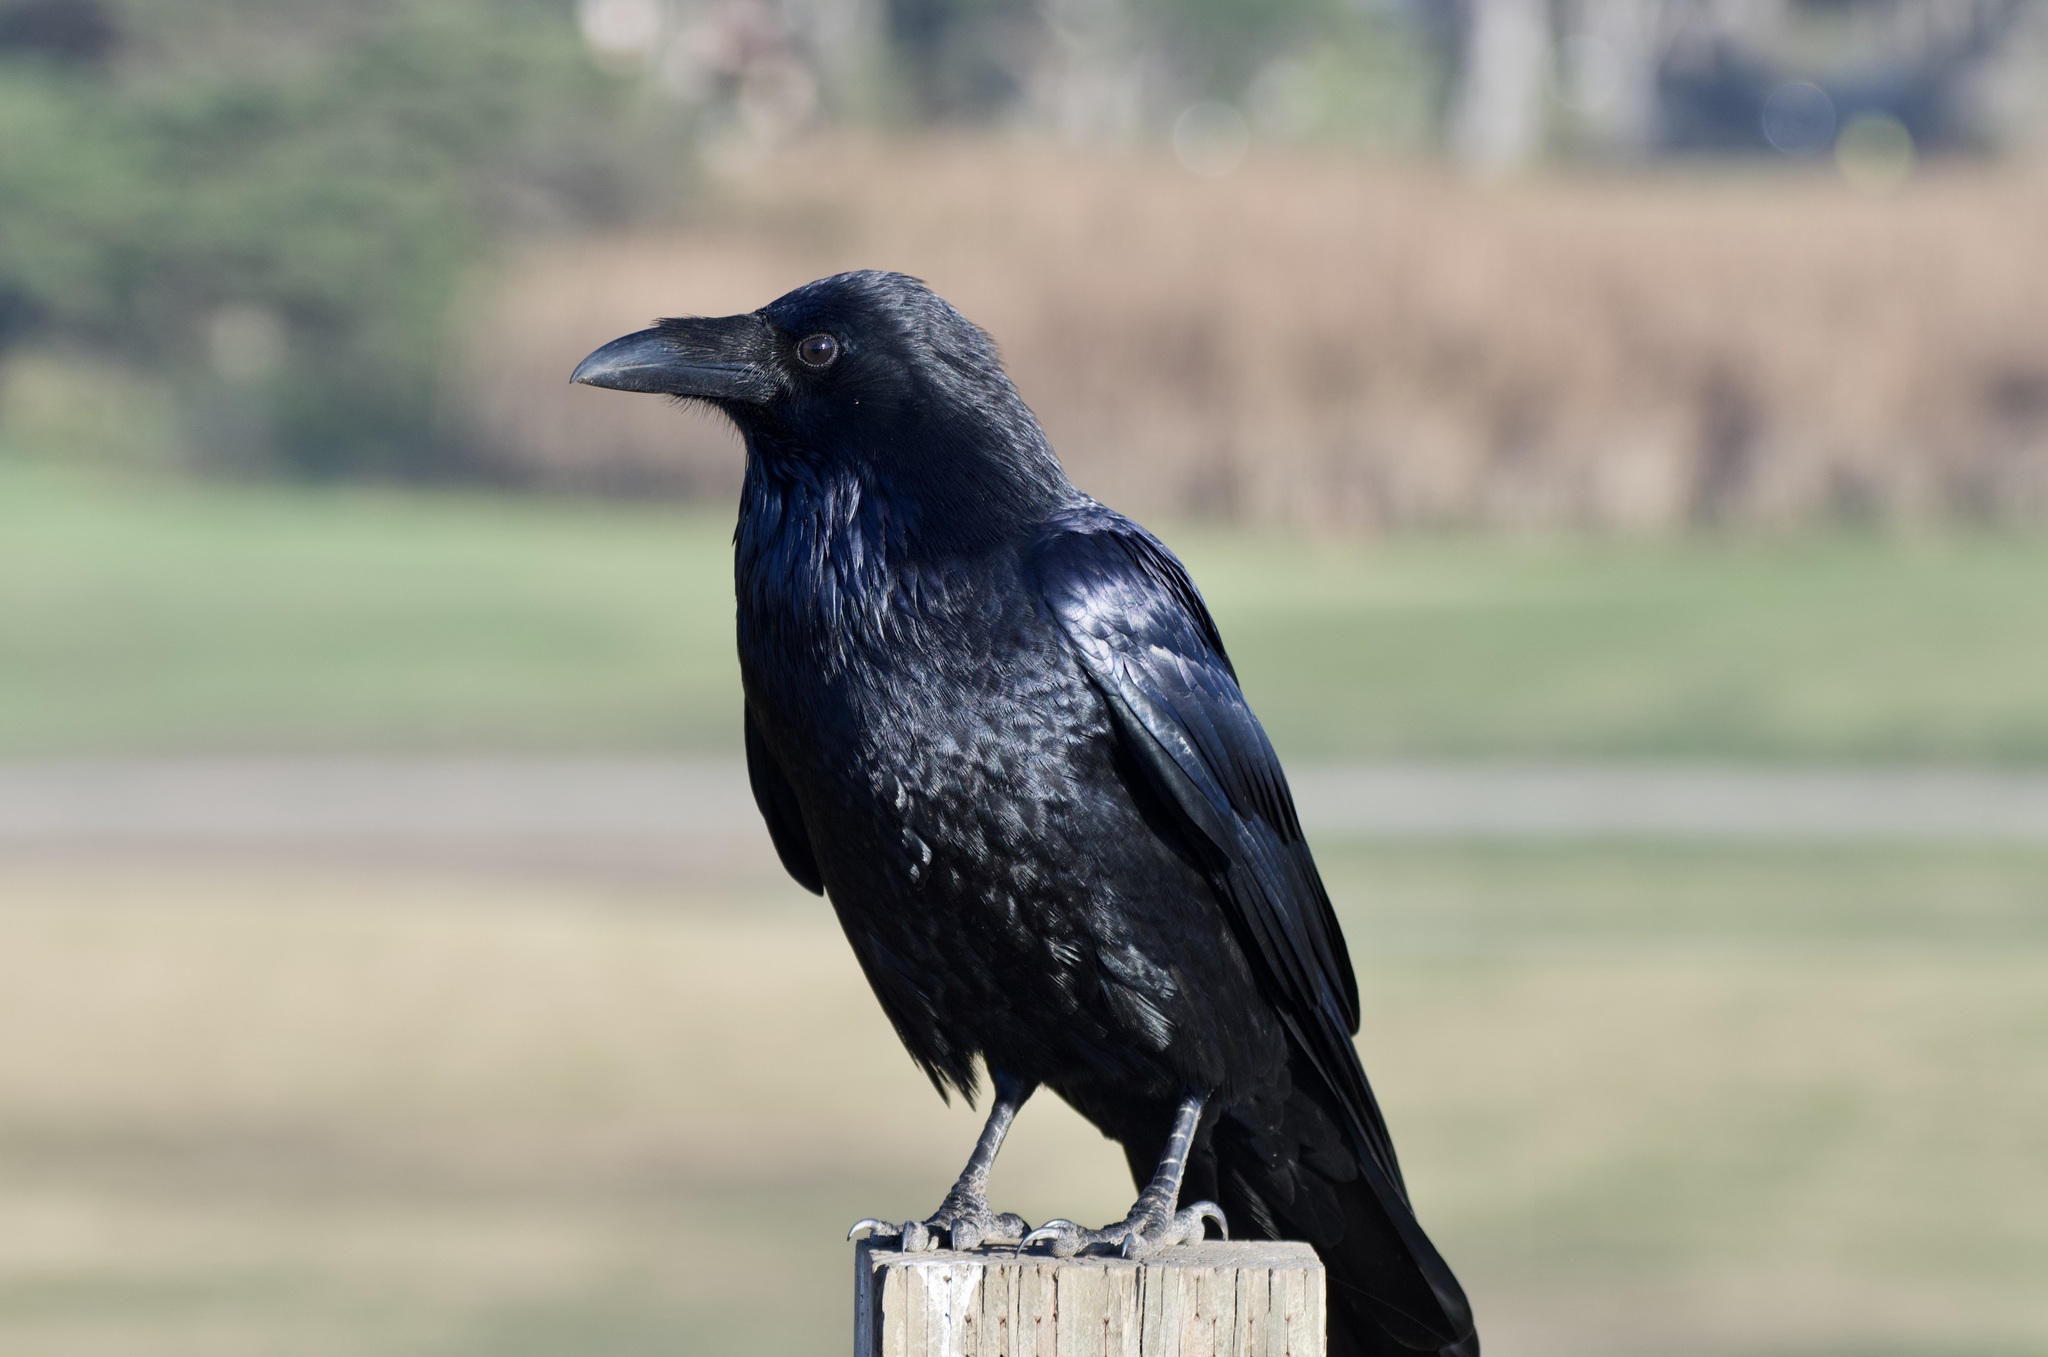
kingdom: Animalia
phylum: Chordata
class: Aves
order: Passeriformes
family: Corvidae
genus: Corvus
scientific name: Corvus corax
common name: Common raven
